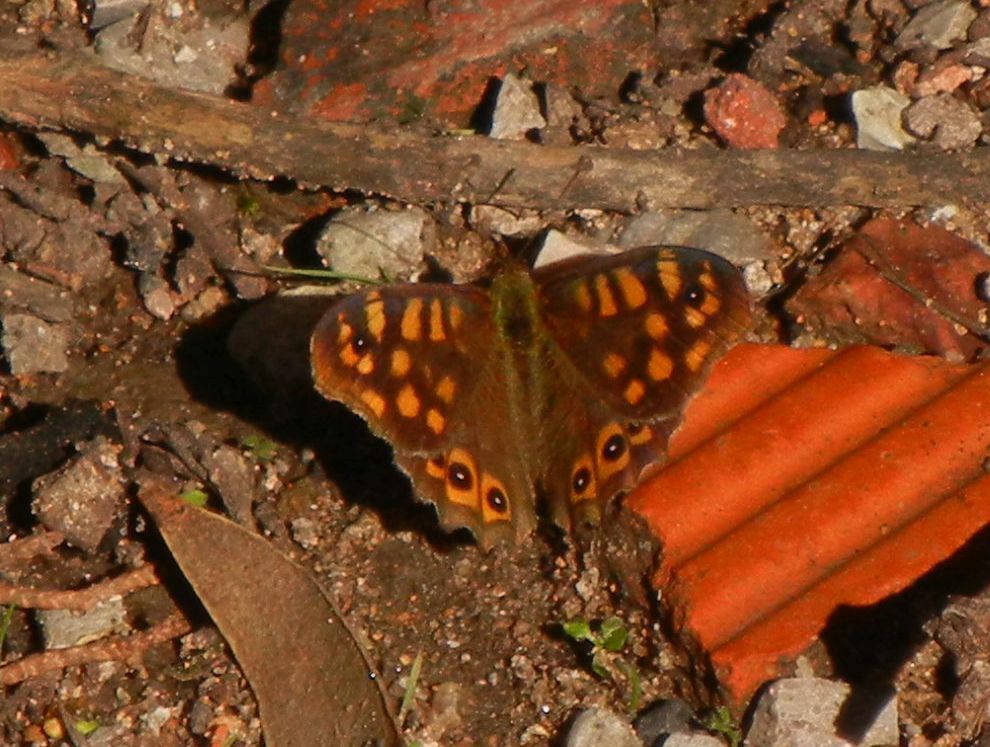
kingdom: Animalia
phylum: Arthropoda
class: Insecta
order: Lepidoptera
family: Nymphalidae
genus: Pararge
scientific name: Pararge aegeria
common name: Speckled wood
